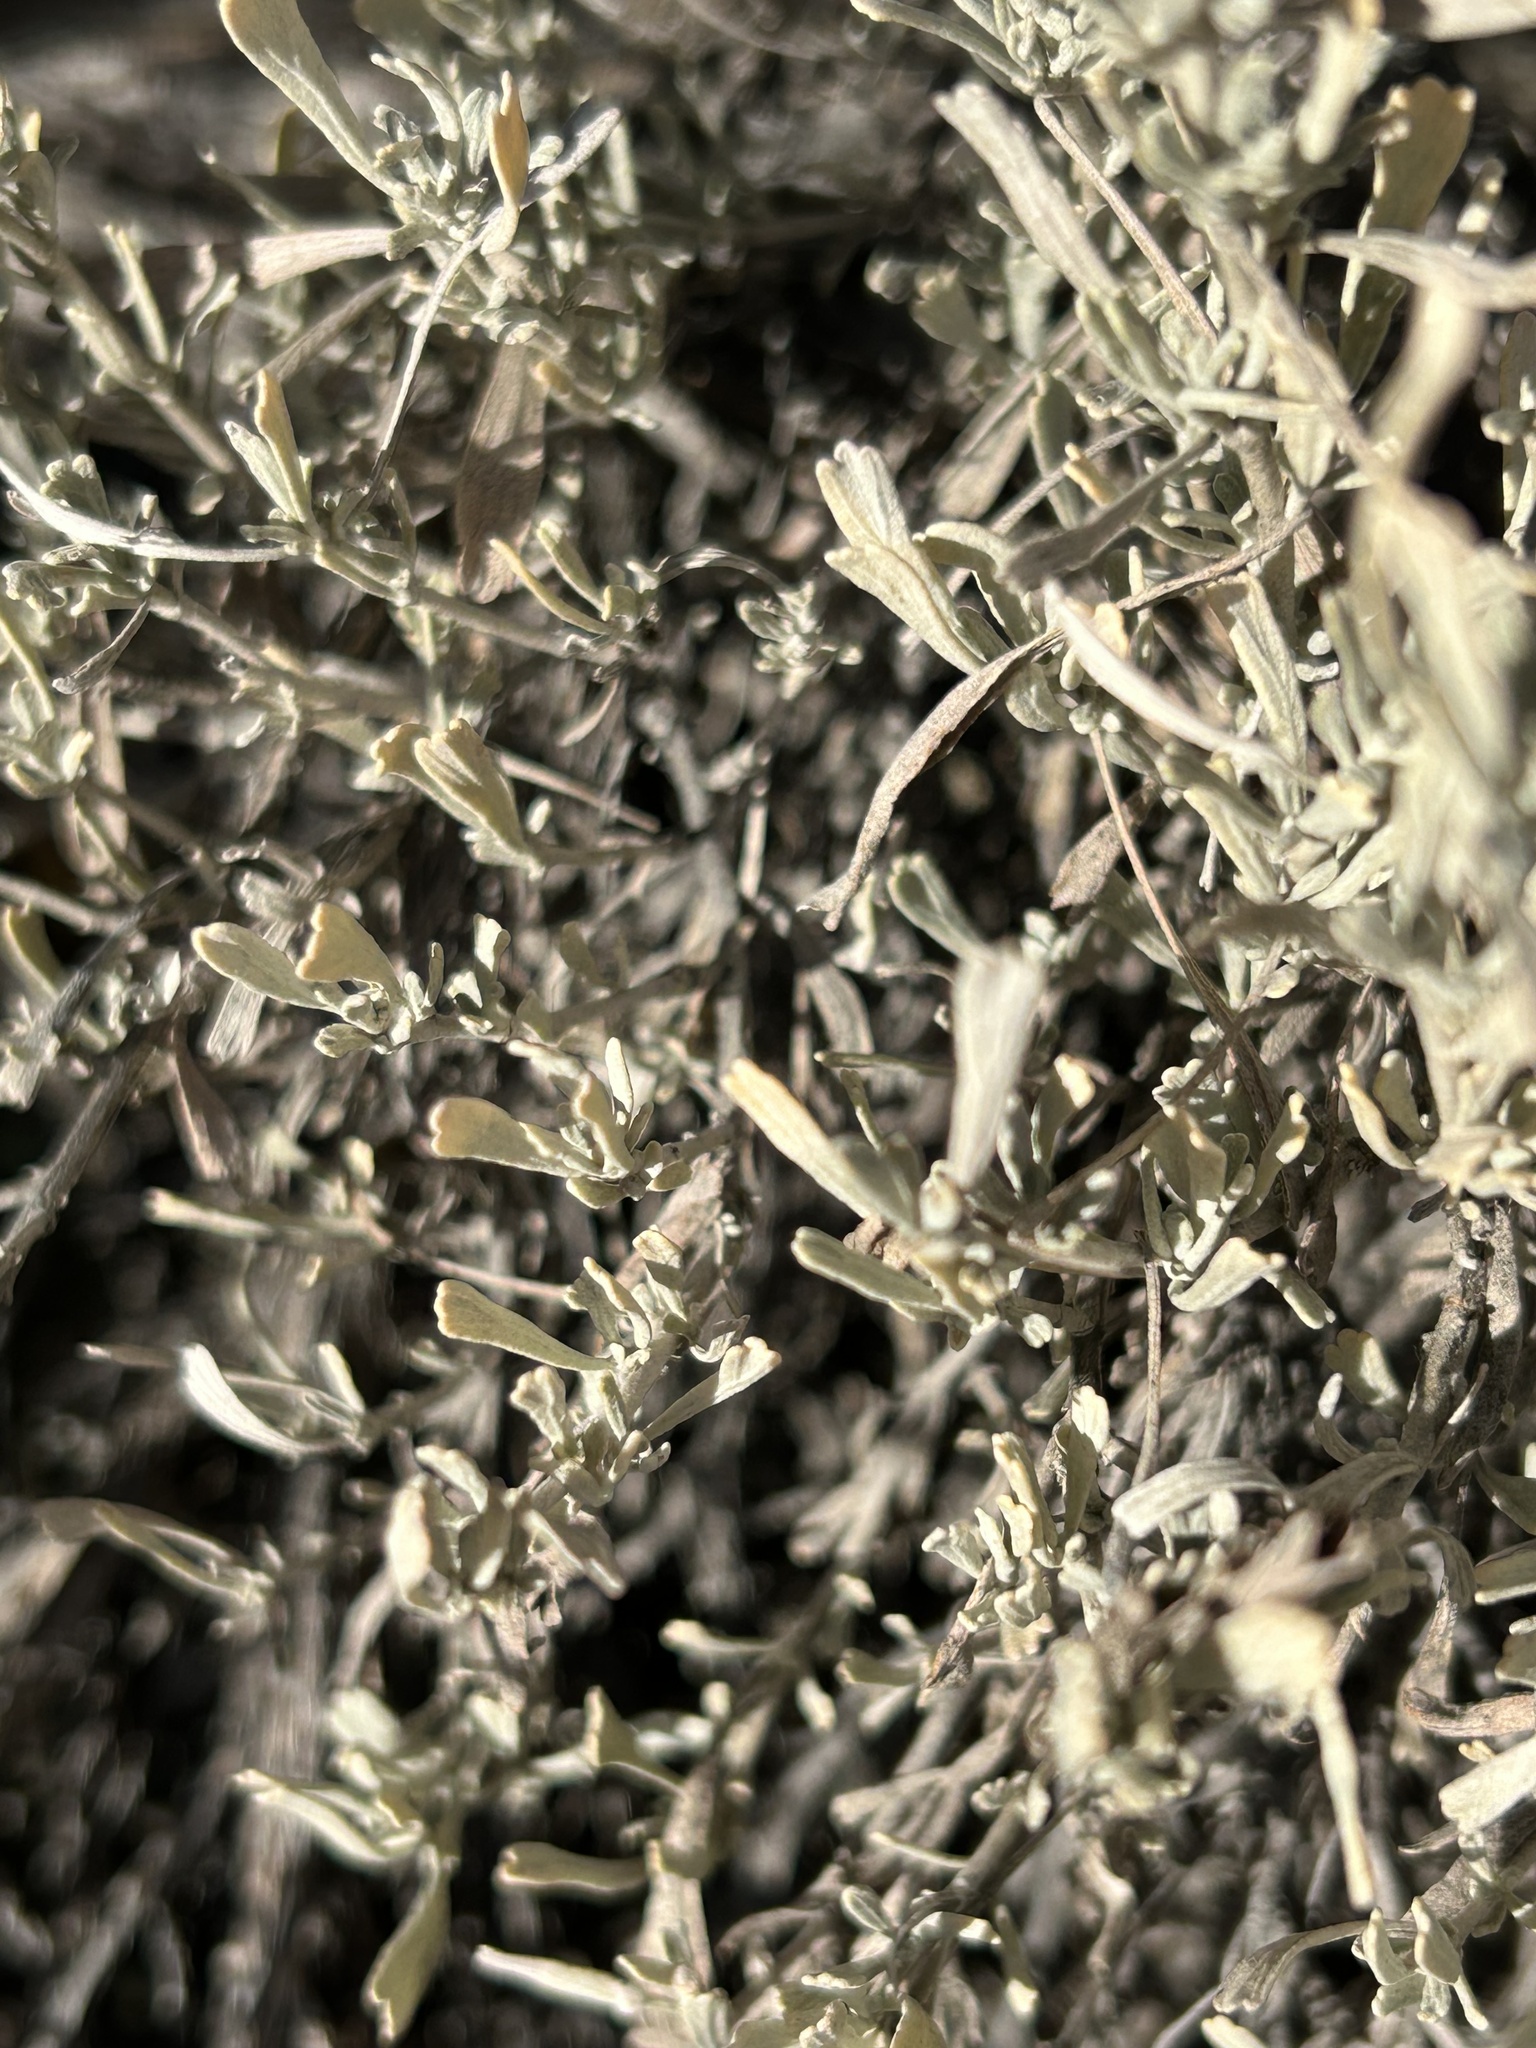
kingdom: Plantae
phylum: Tracheophyta
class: Magnoliopsida
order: Asterales
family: Asteraceae
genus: Artemisia
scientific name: Artemisia tridentata
